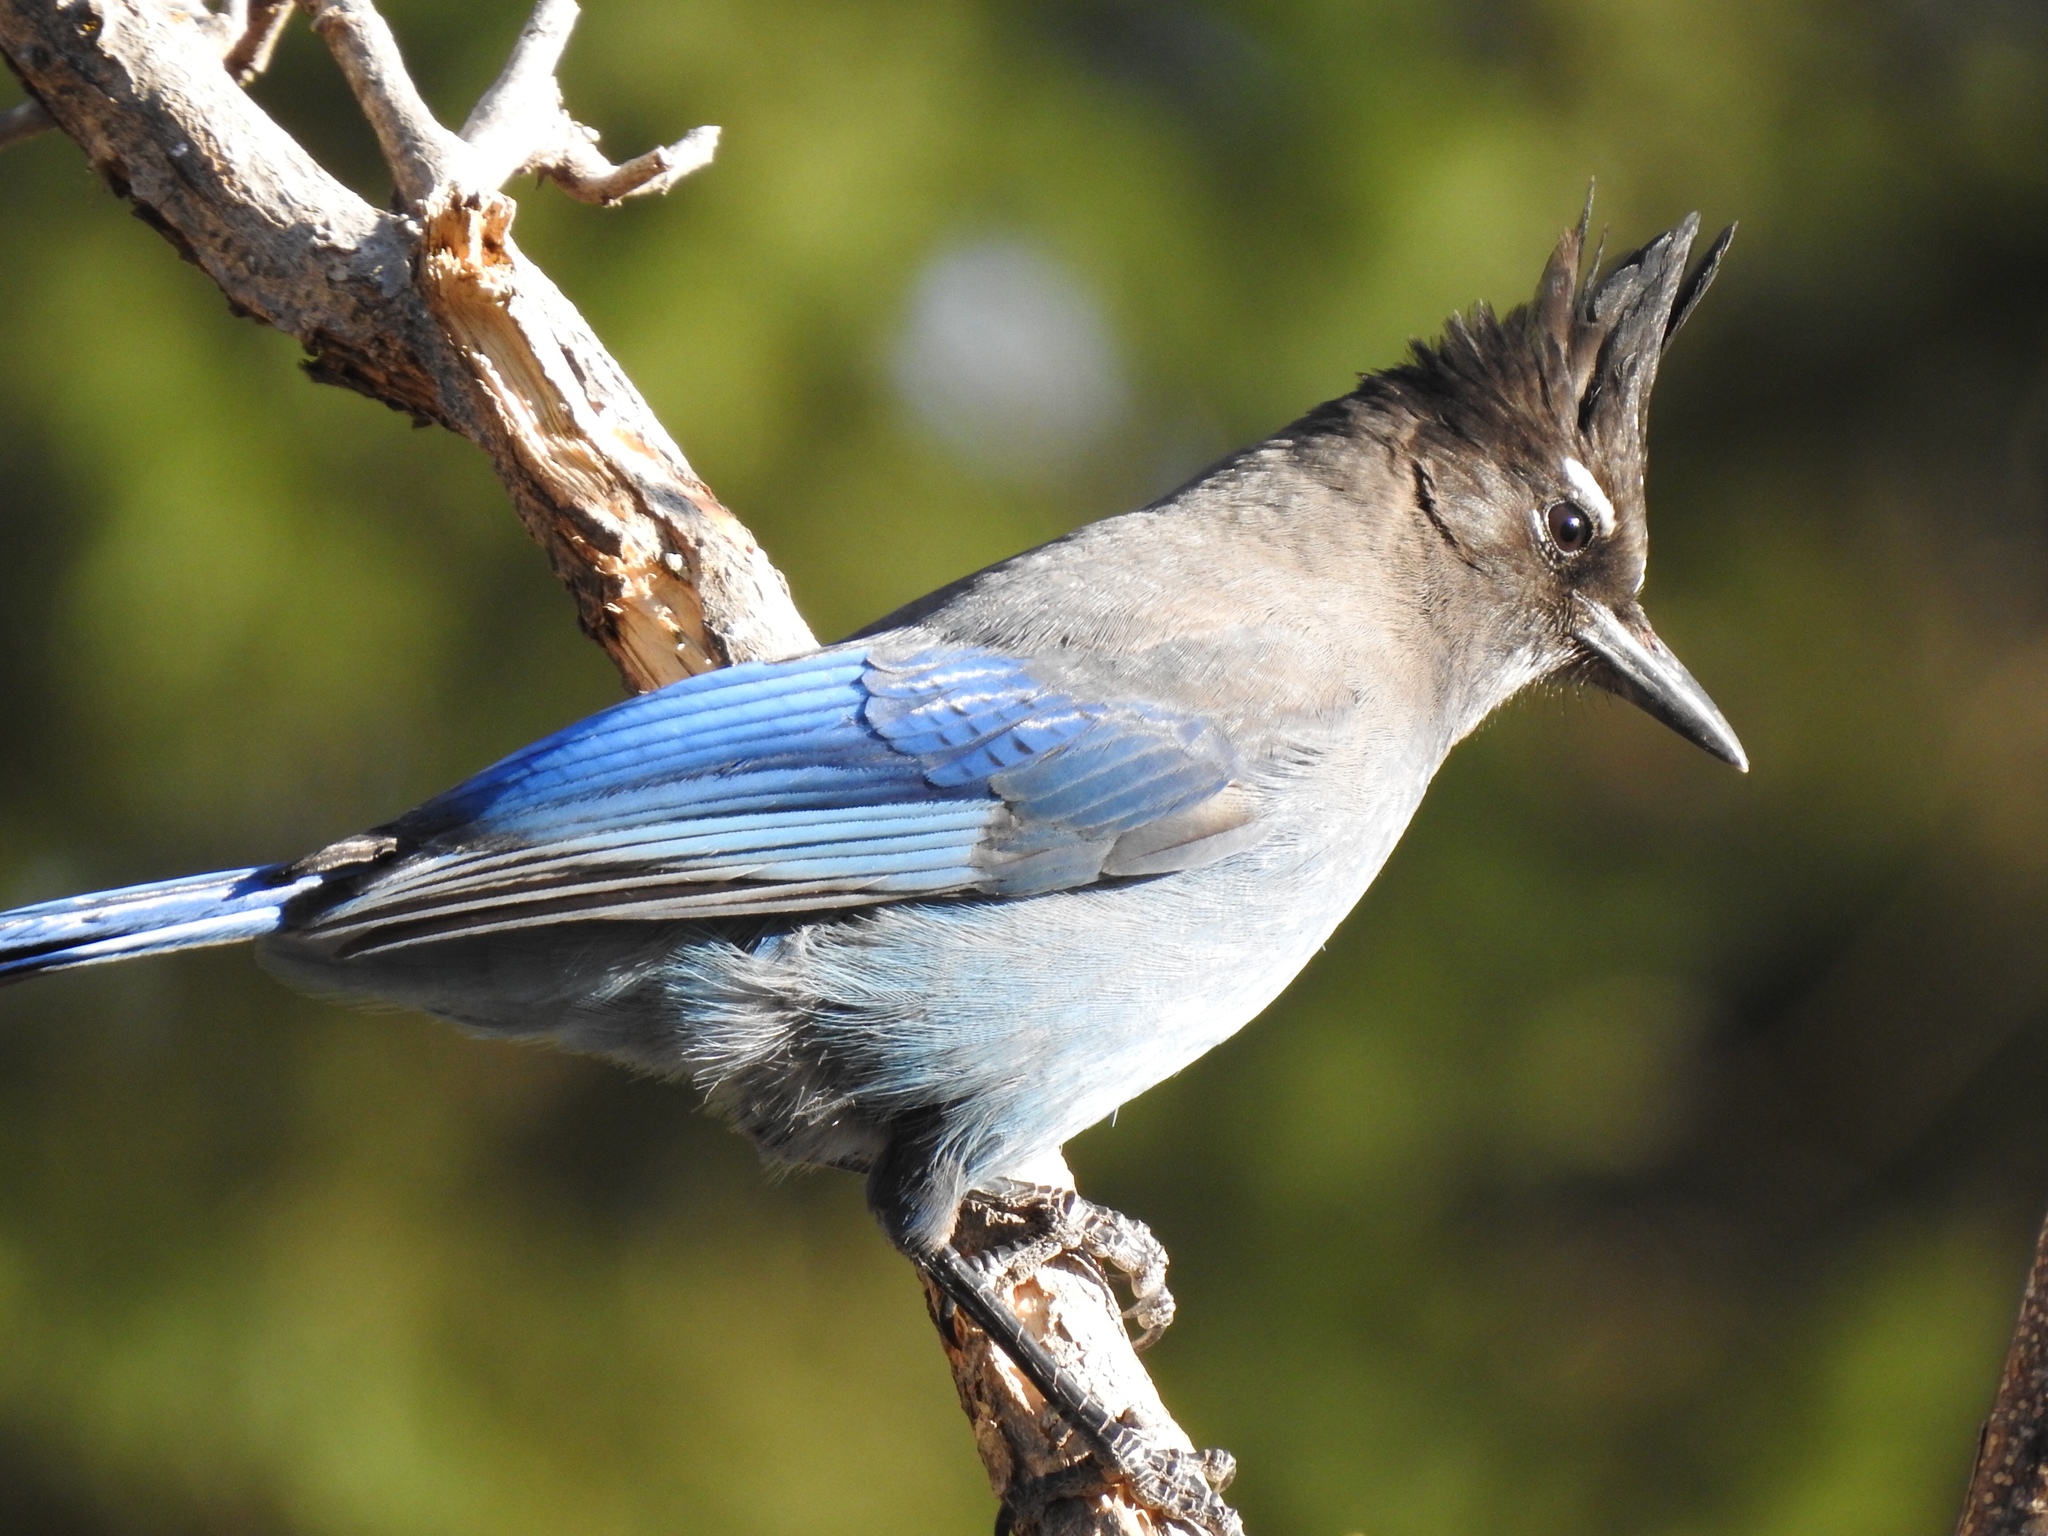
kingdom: Animalia
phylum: Chordata
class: Aves
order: Passeriformes
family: Corvidae
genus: Cyanocitta
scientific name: Cyanocitta stelleri
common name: Steller's jay
